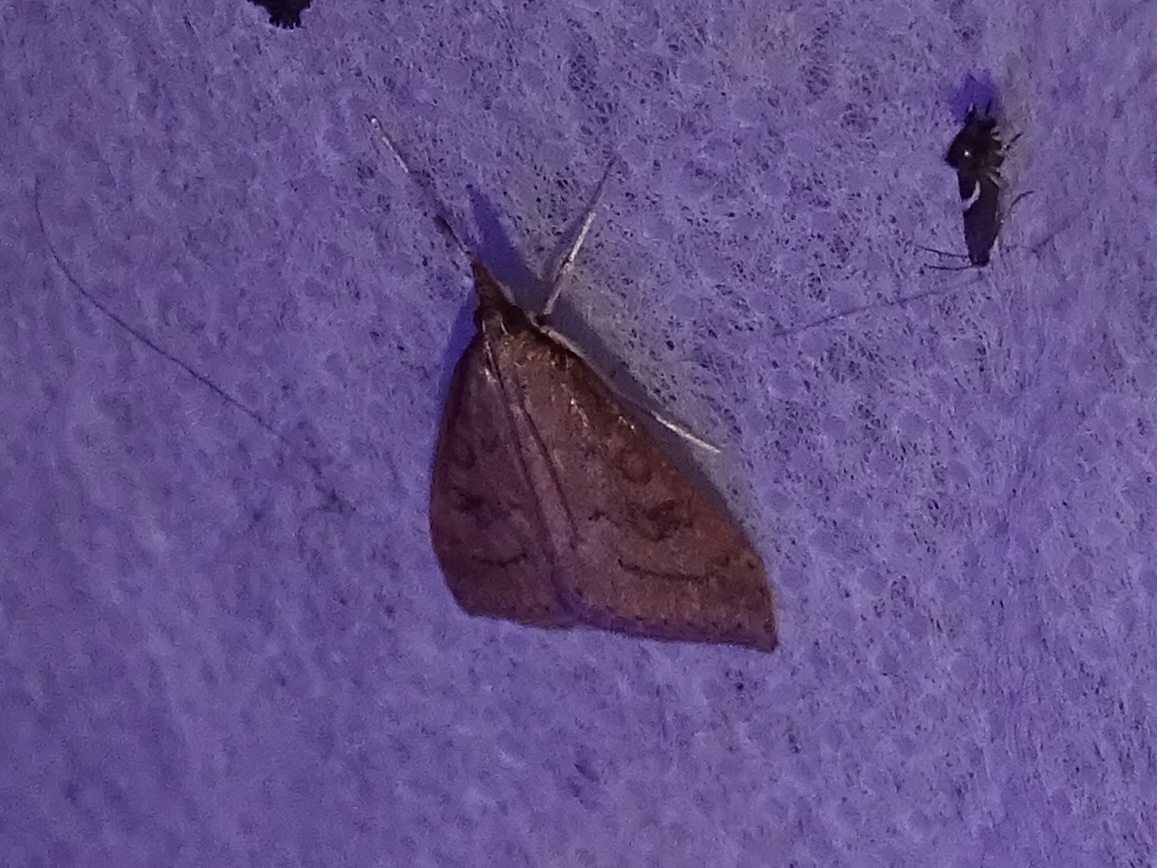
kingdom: Animalia
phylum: Arthropoda
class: Insecta
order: Lepidoptera
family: Crambidae
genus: Udea
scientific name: Udea rubigalis
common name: Celery leaftier moth
